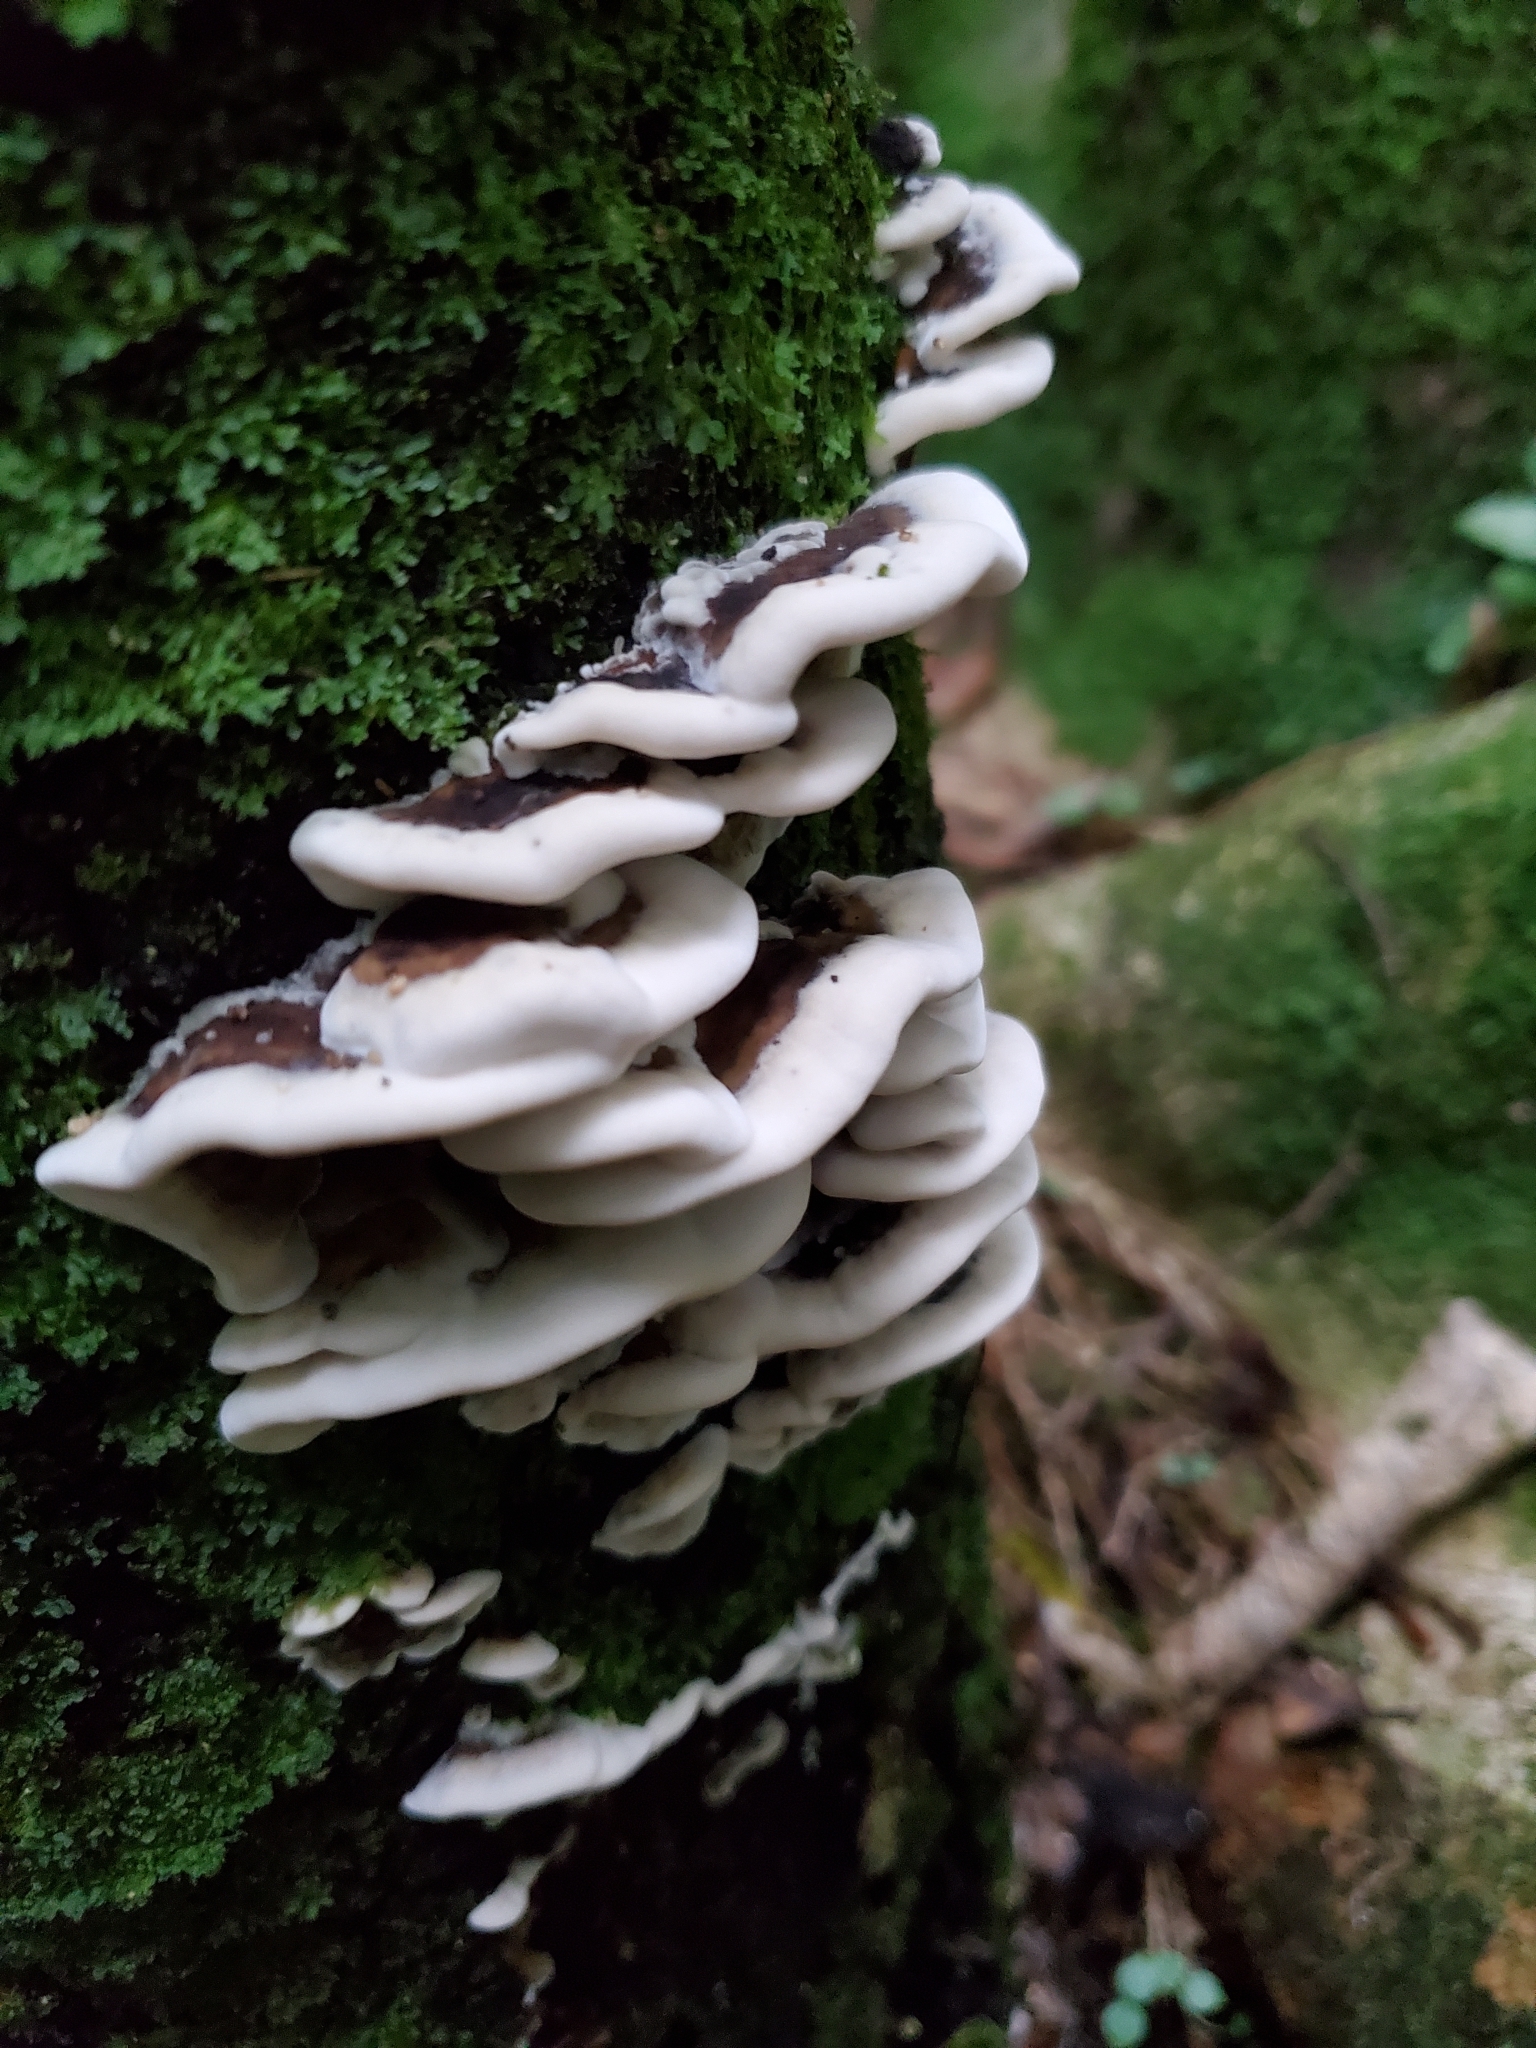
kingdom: Fungi
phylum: Basidiomycota
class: Agaricomycetes
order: Polyporales
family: Phanerochaetaceae
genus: Bjerkandera
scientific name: Bjerkandera adusta
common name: Smoky bracket
